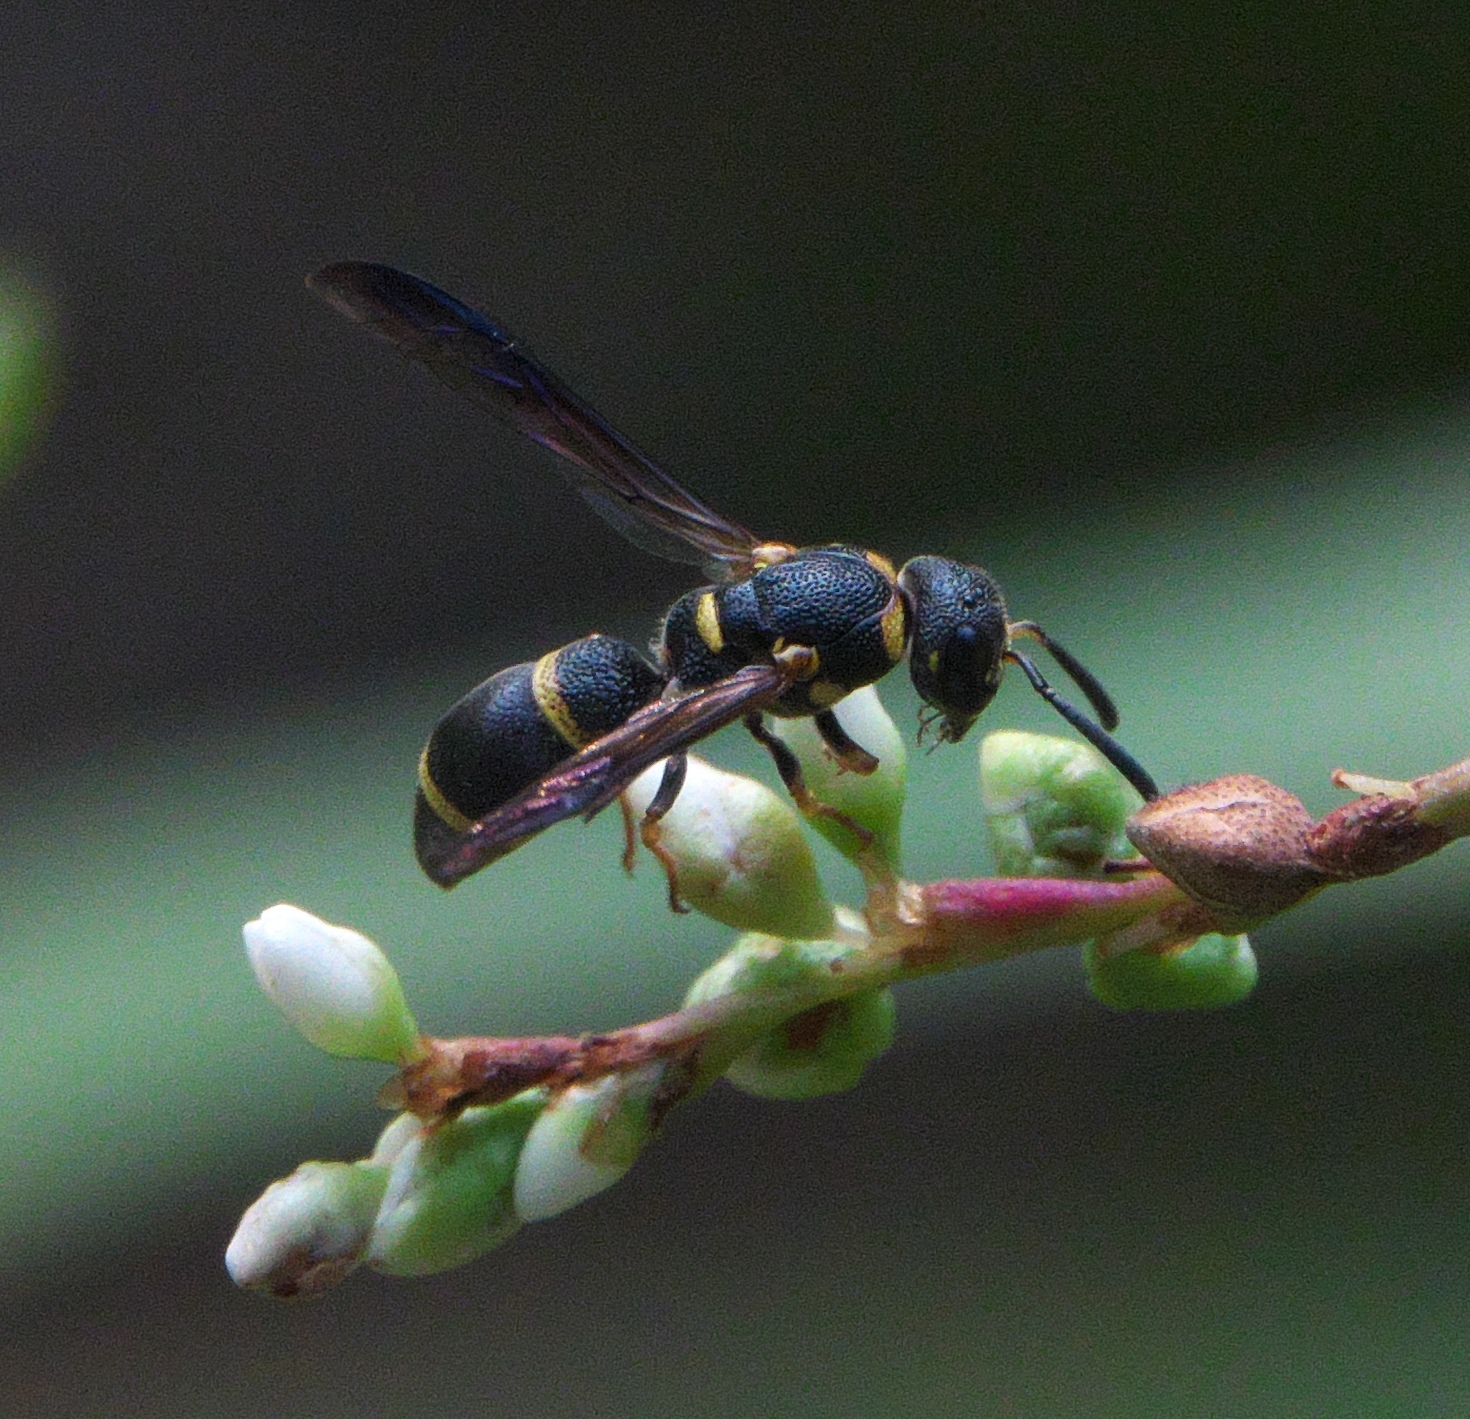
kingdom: Animalia
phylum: Arthropoda
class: Insecta
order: Hymenoptera
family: Eumenidae
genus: Parancistrocerus
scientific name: Parancistrocerus perennis
